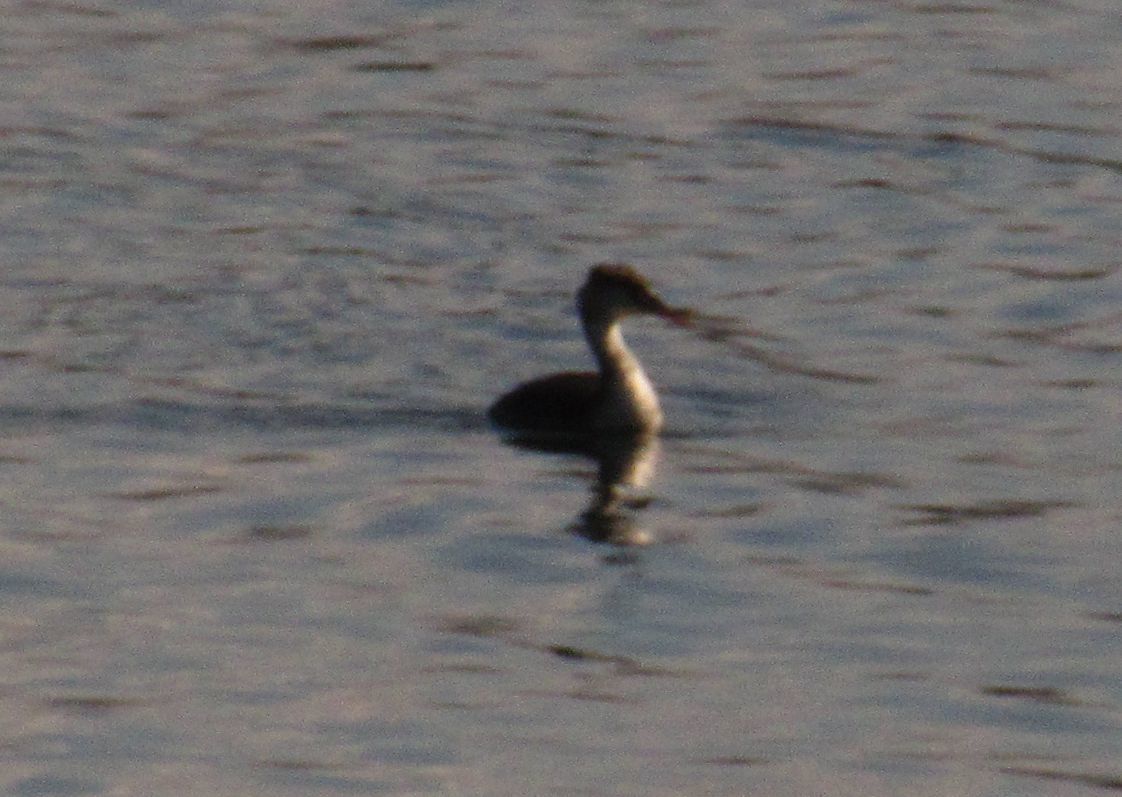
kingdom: Animalia
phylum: Chordata
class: Aves
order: Podicipediformes
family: Podicipedidae
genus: Podiceps
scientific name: Podiceps cristatus
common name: Great crested grebe
